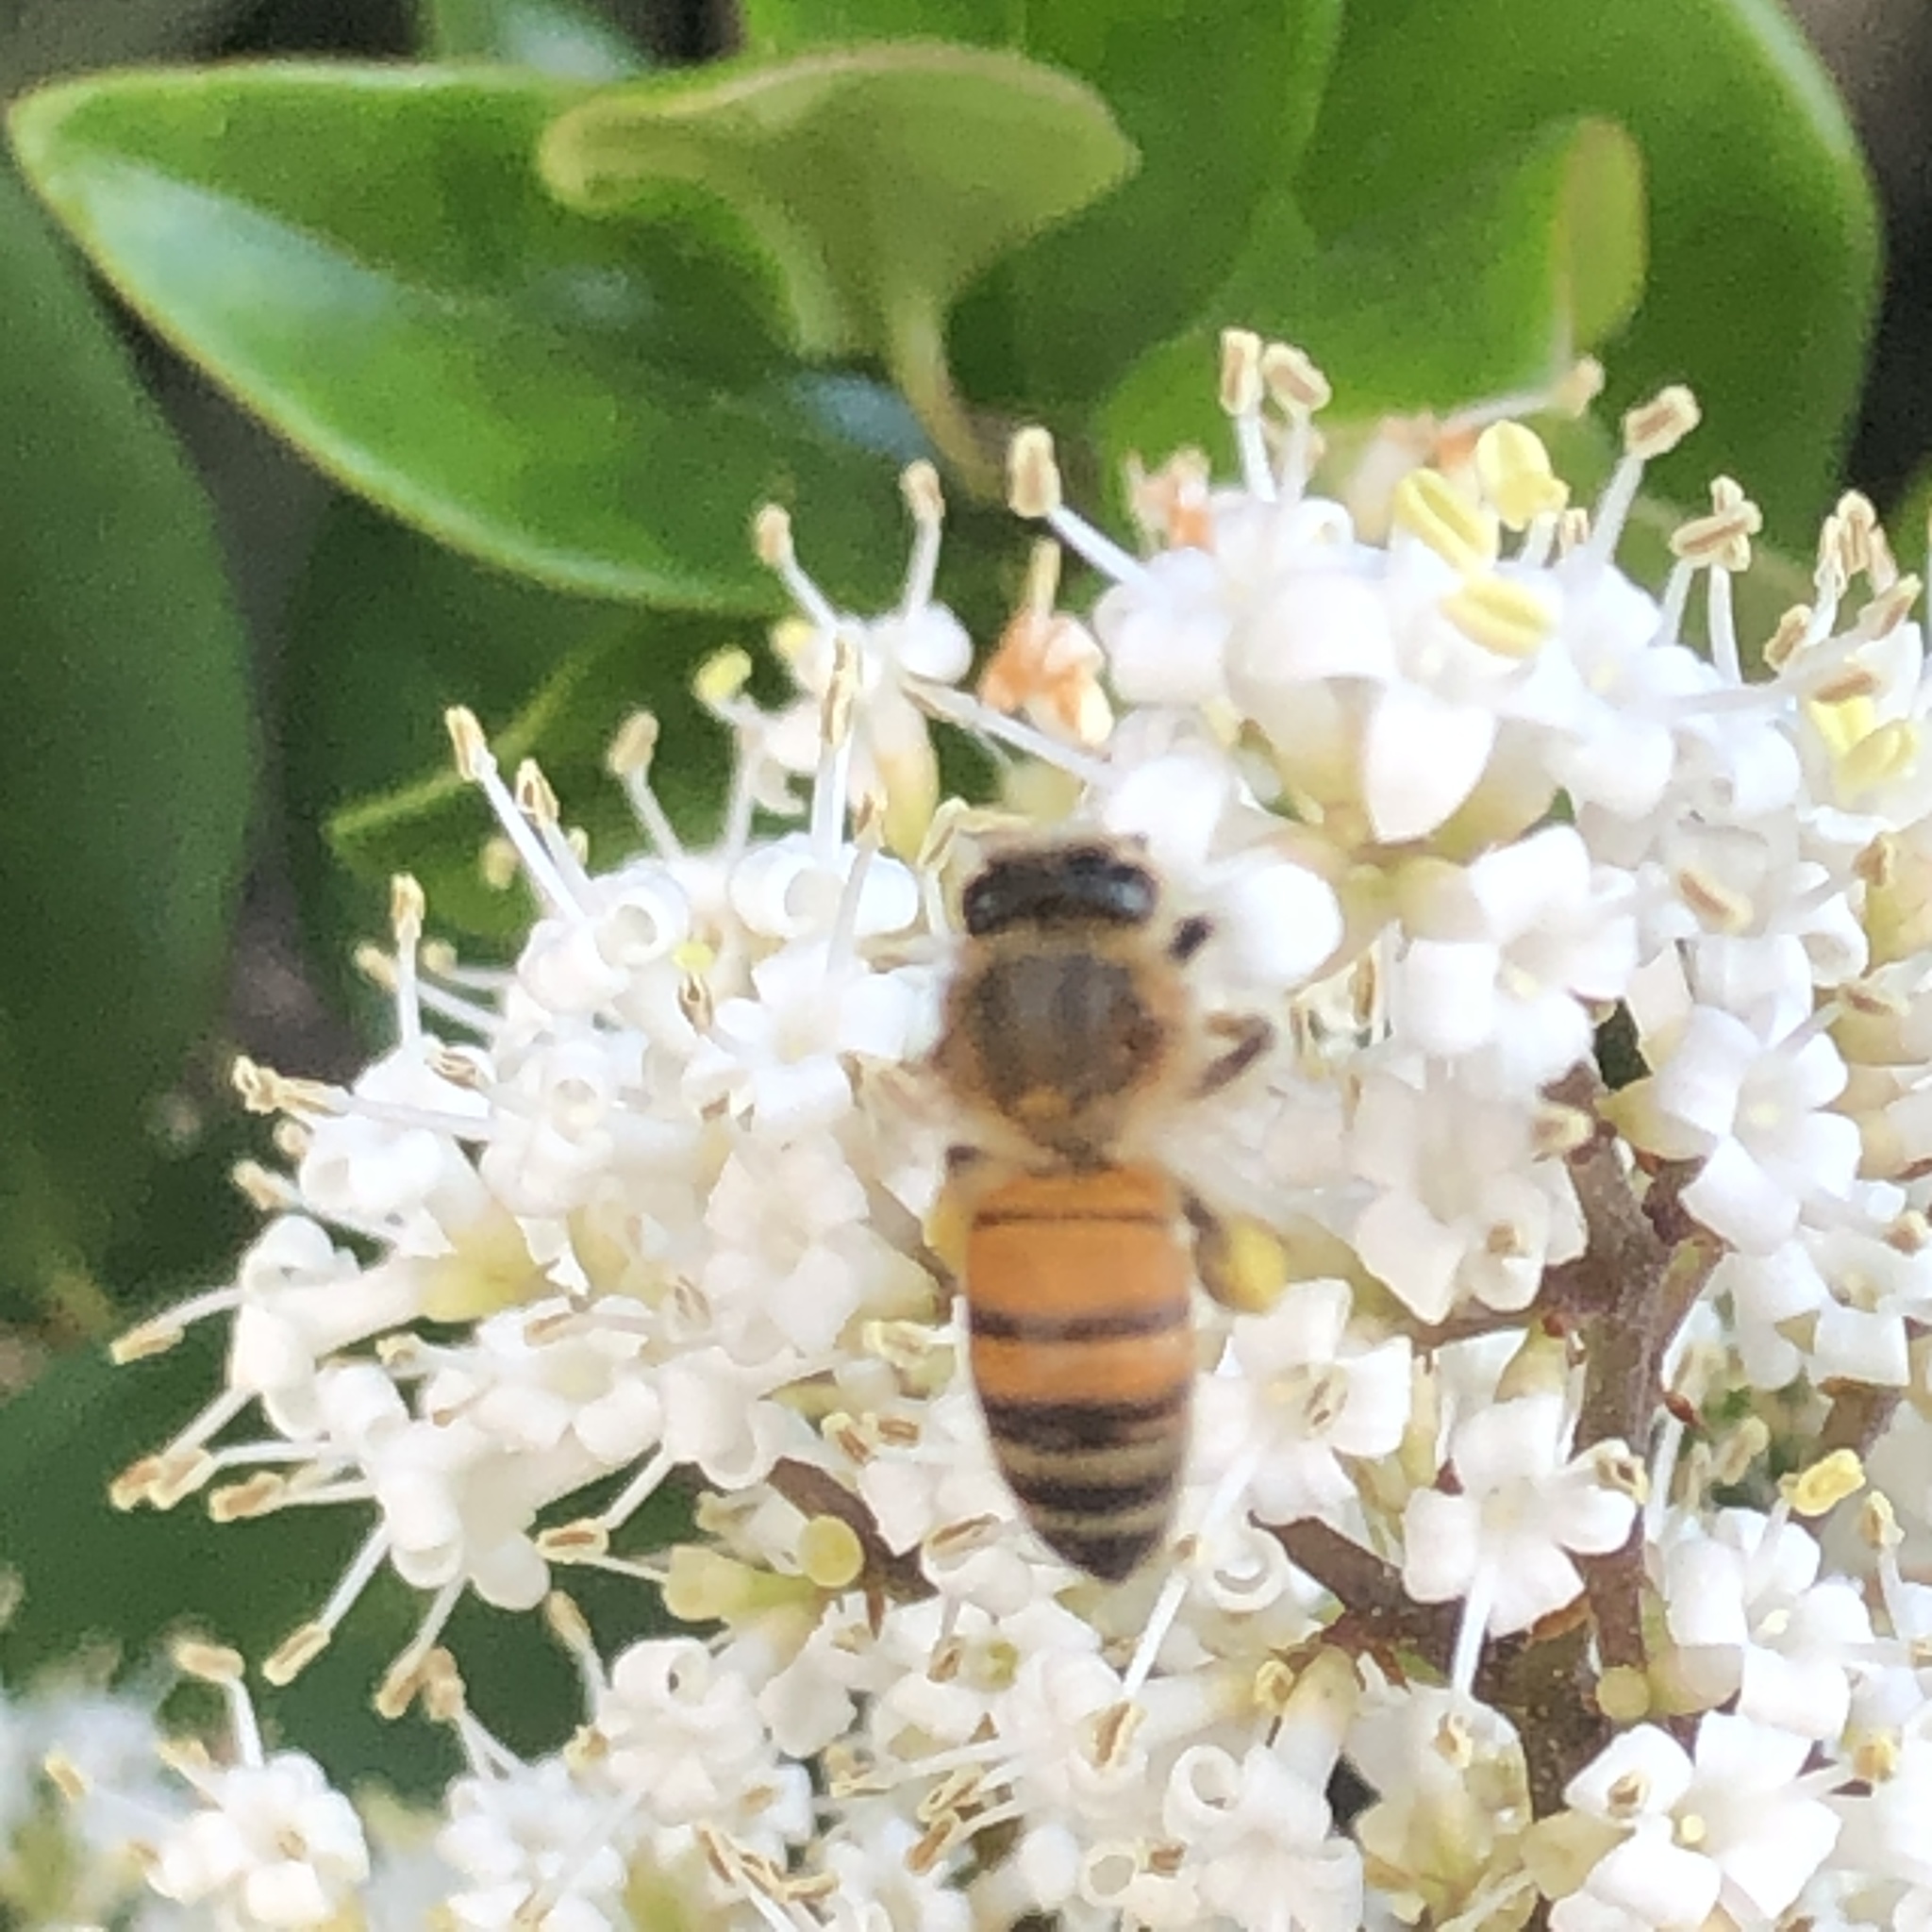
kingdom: Animalia
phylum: Arthropoda
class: Insecta
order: Hymenoptera
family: Apidae
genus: Apis
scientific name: Apis mellifera
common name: Honey bee
